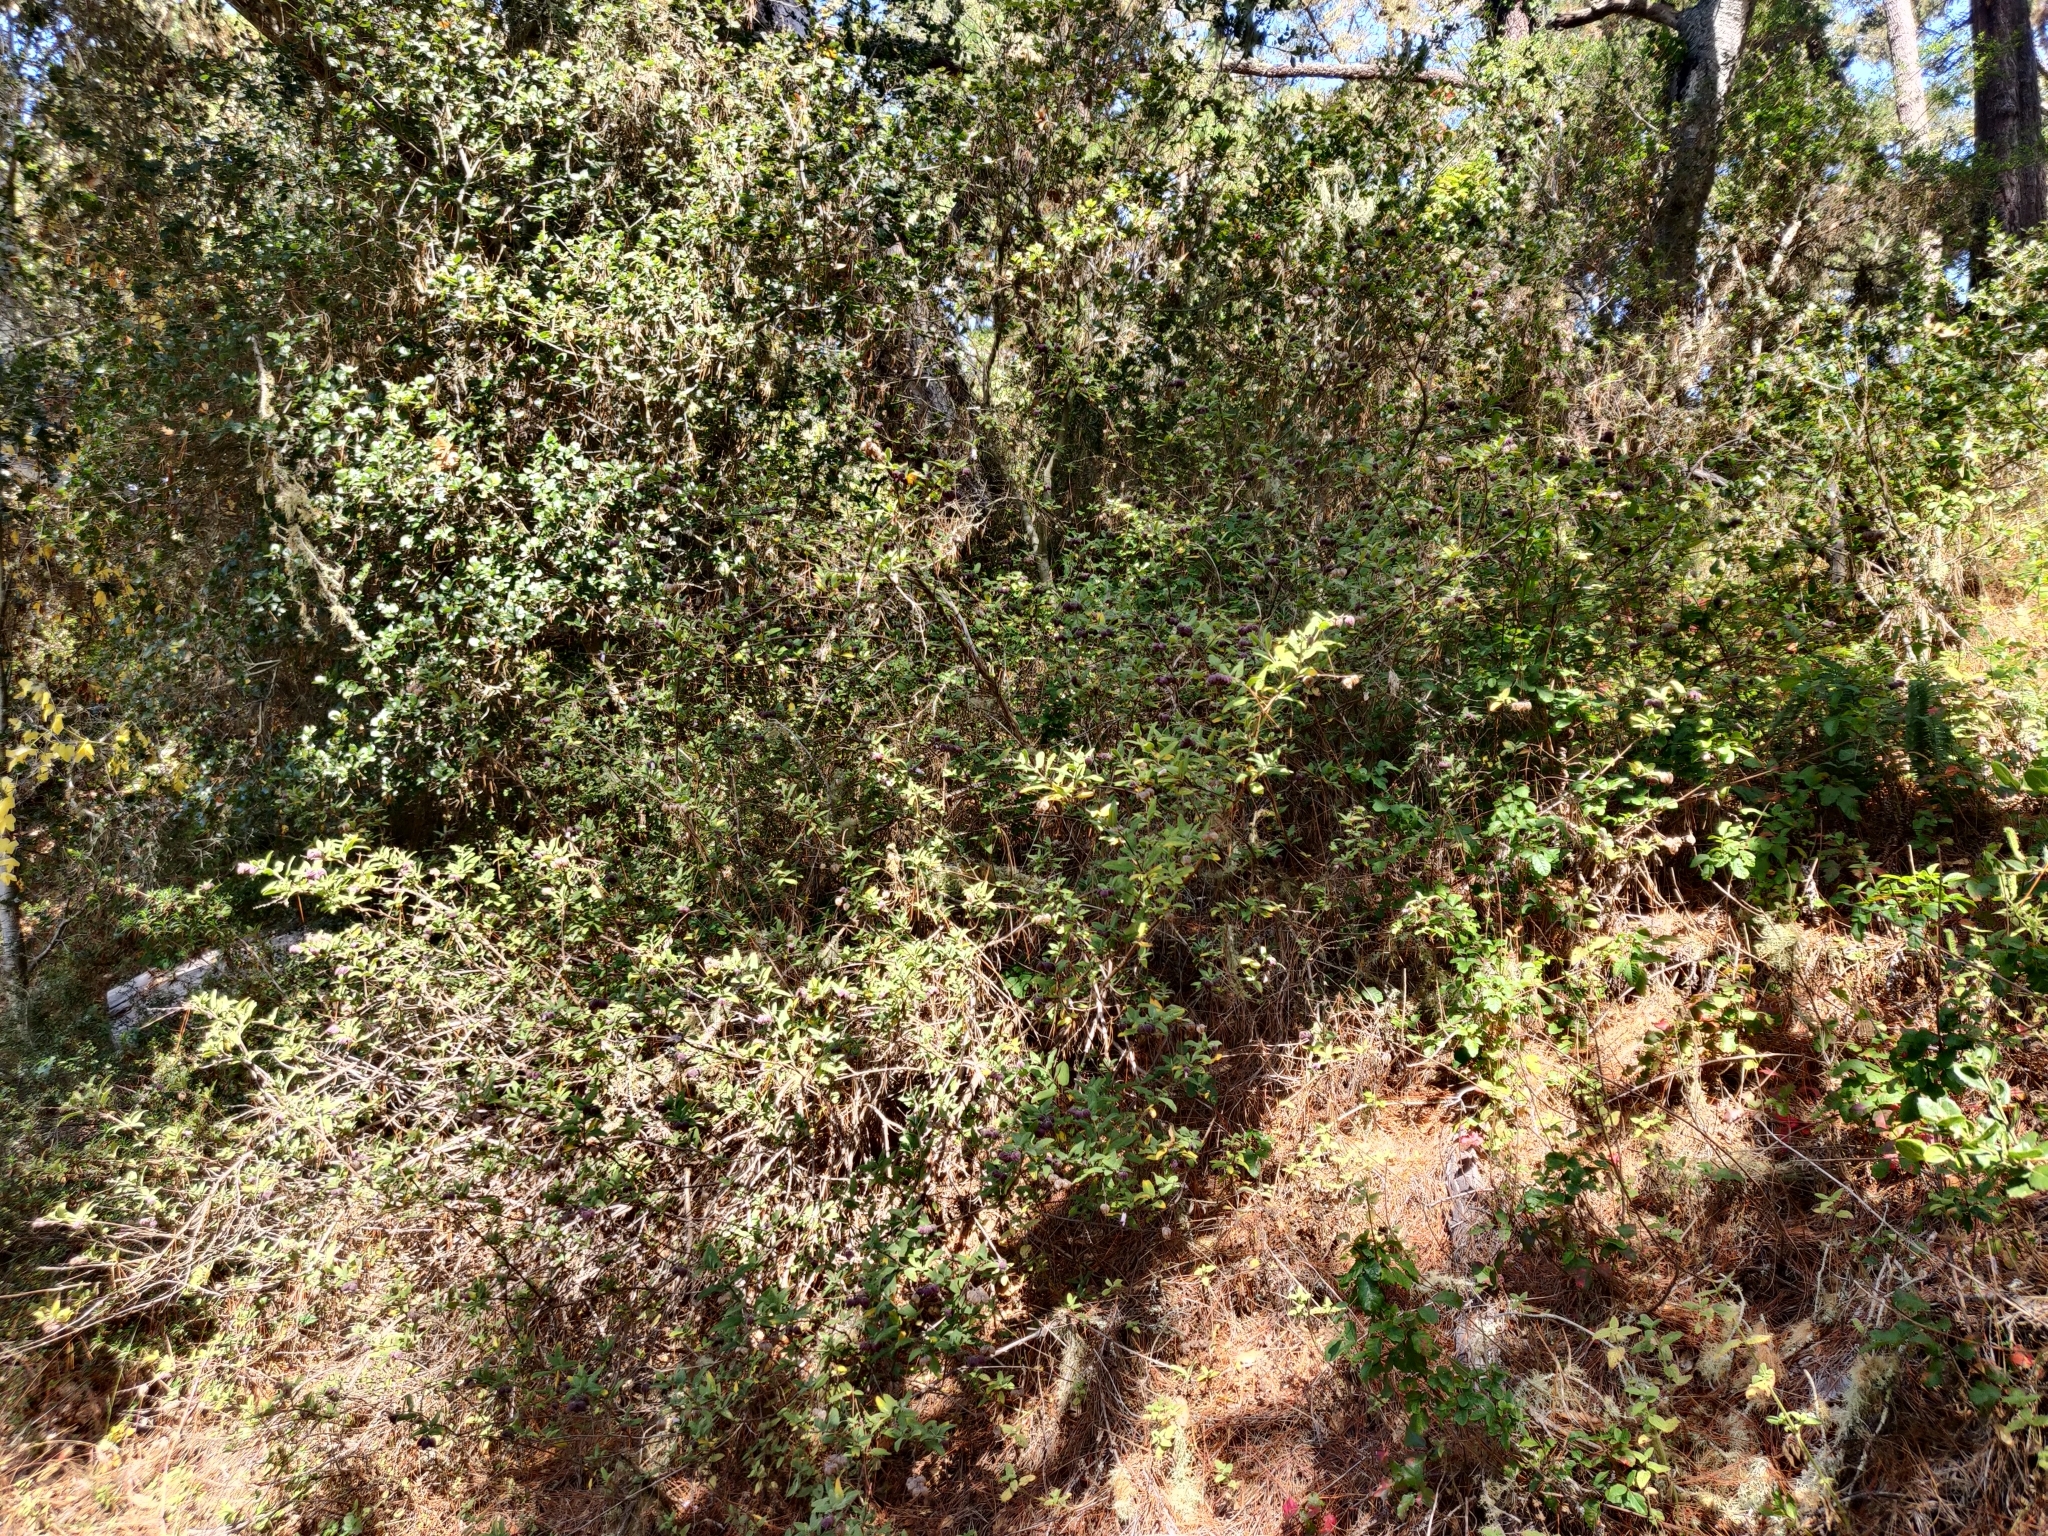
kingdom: Plantae
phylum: Tracheophyta
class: Magnoliopsida
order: Lamiales
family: Lamiaceae
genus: Lepechinia
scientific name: Lepechinia calycina
